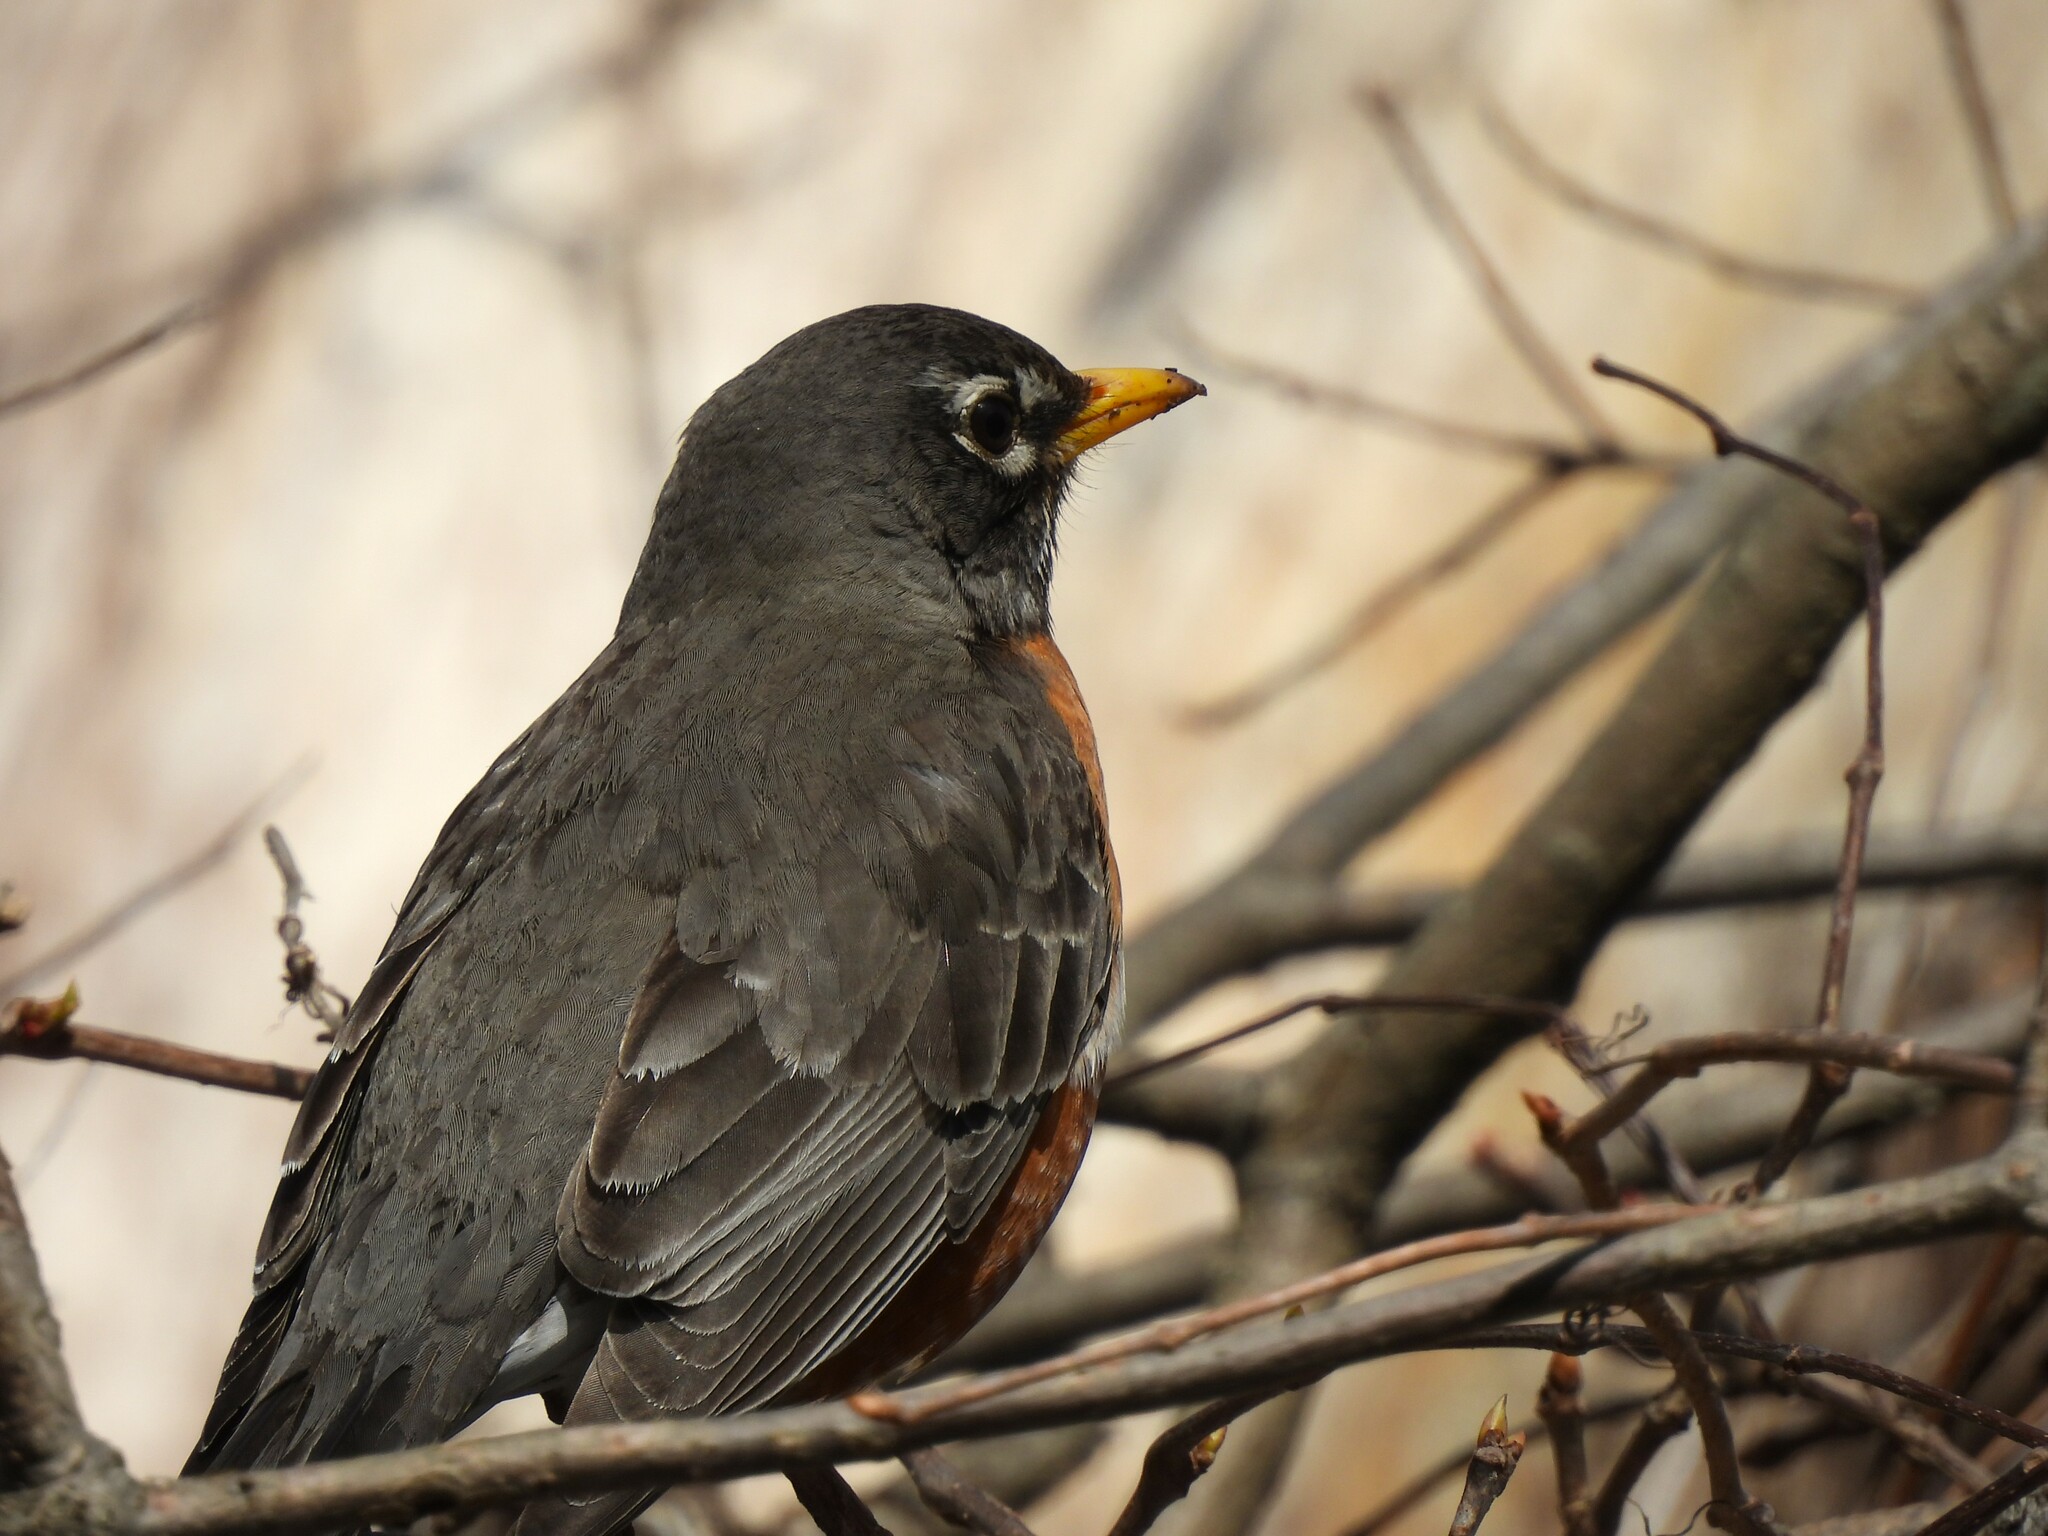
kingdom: Animalia
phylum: Chordata
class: Aves
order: Passeriformes
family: Turdidae
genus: Turdus
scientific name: Turdus migratorius
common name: American robin
